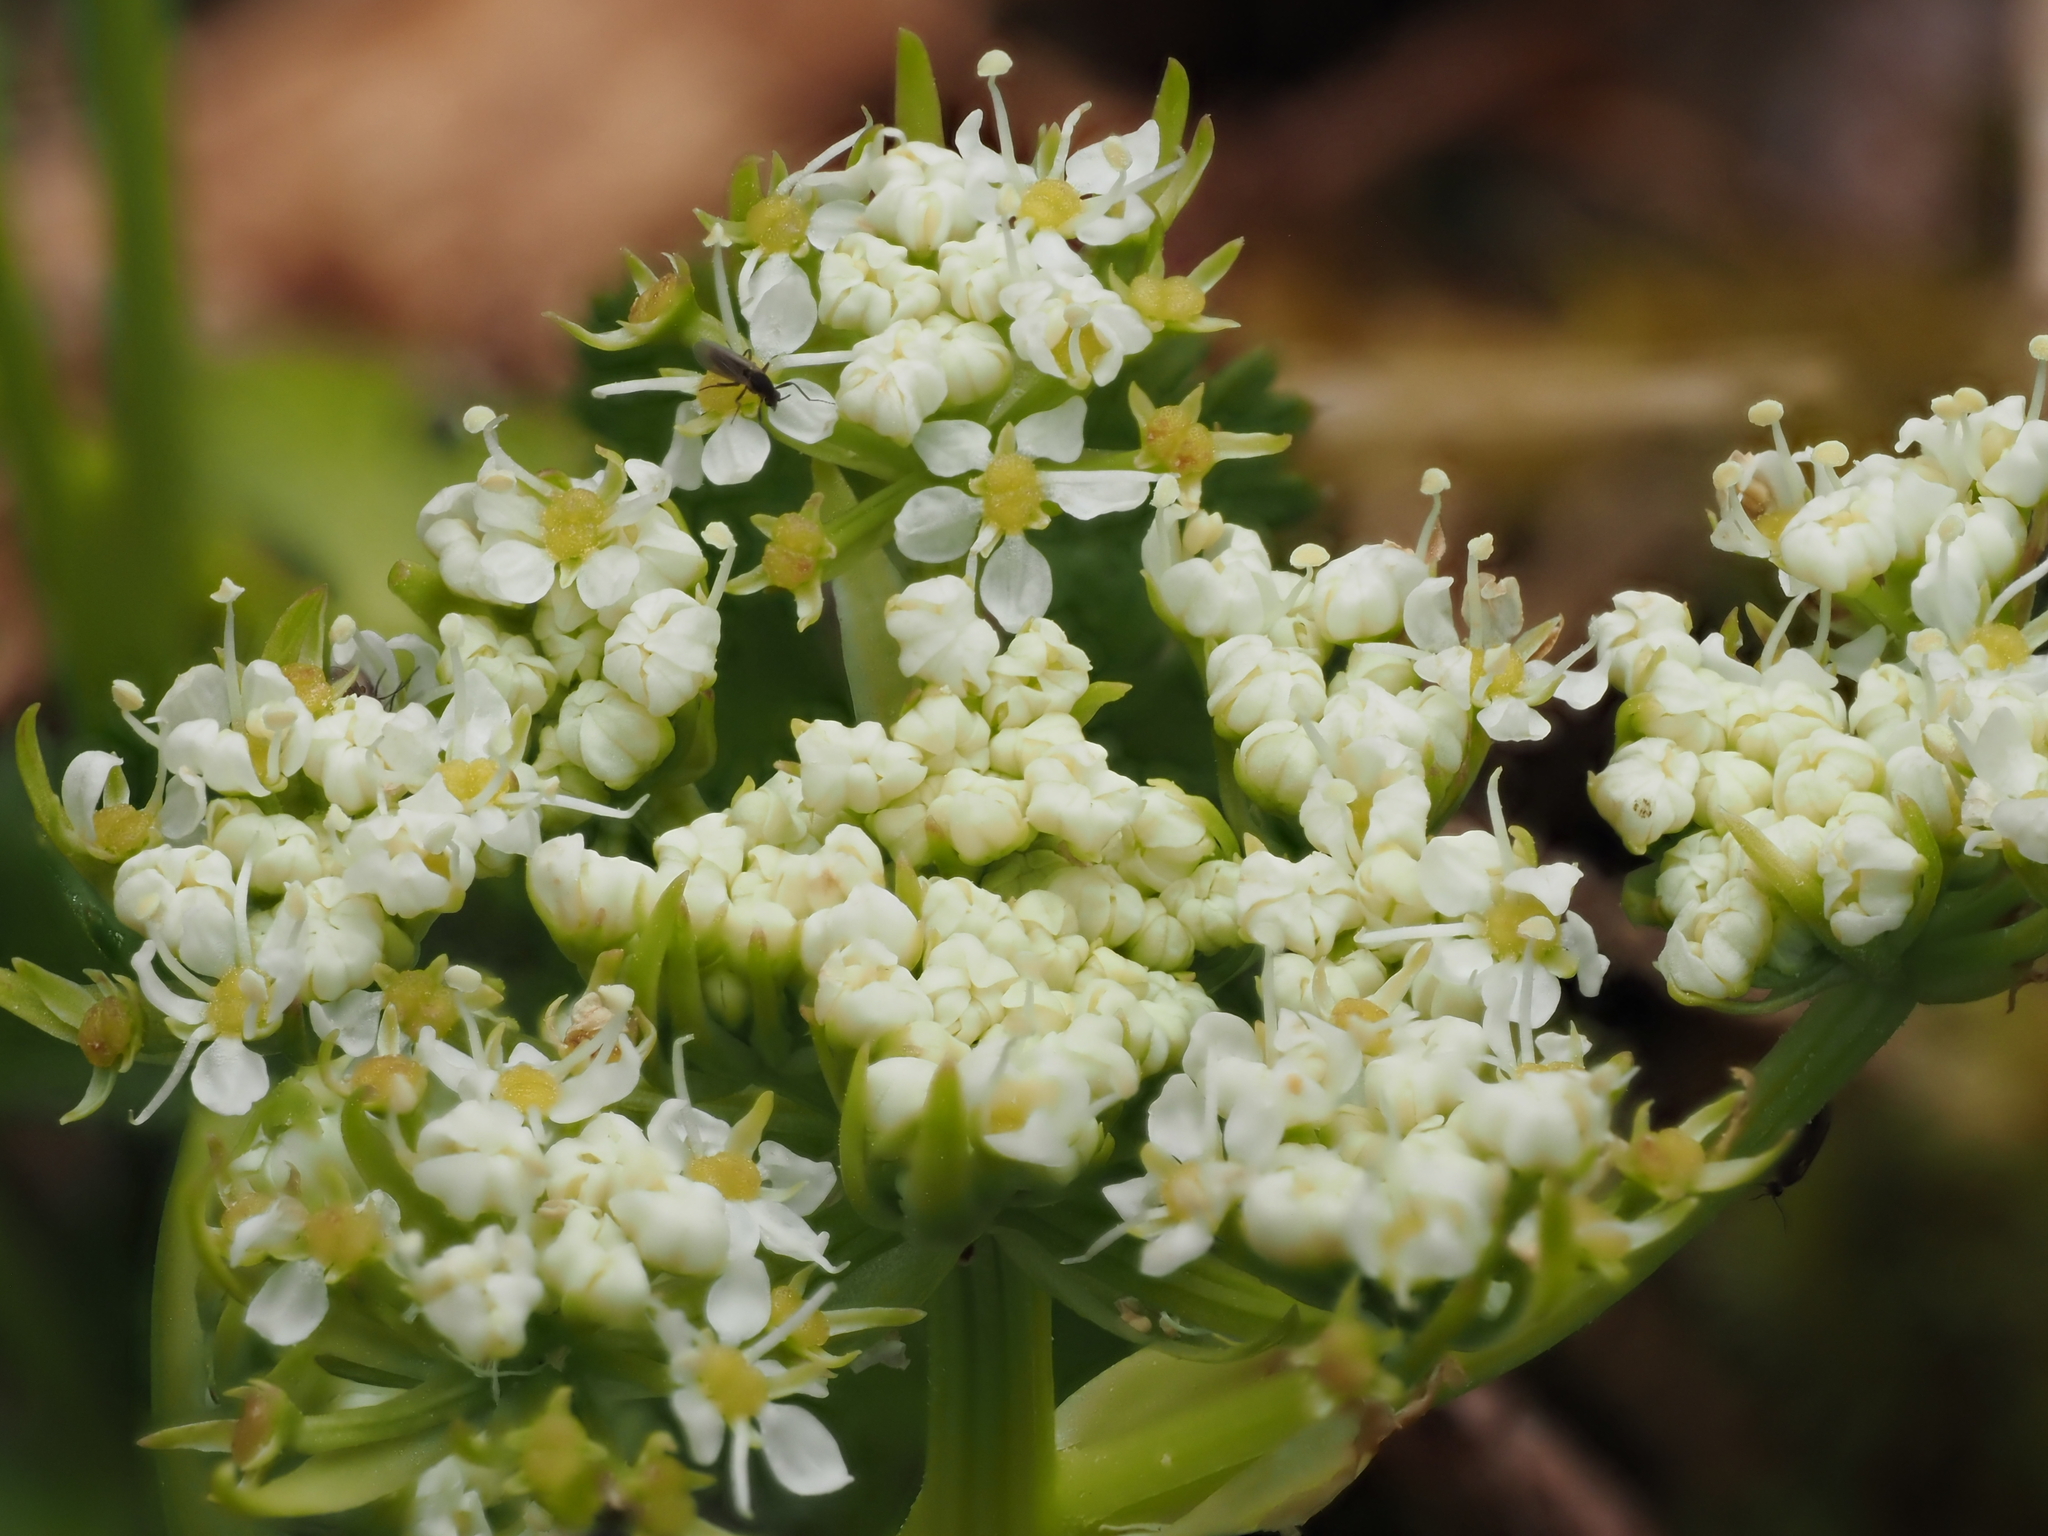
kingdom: Plantae
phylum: Tracheophyta
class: Magnoliopsida
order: Apiales
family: Apiaceae
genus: Anisotome
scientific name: Anisotome aromatica
